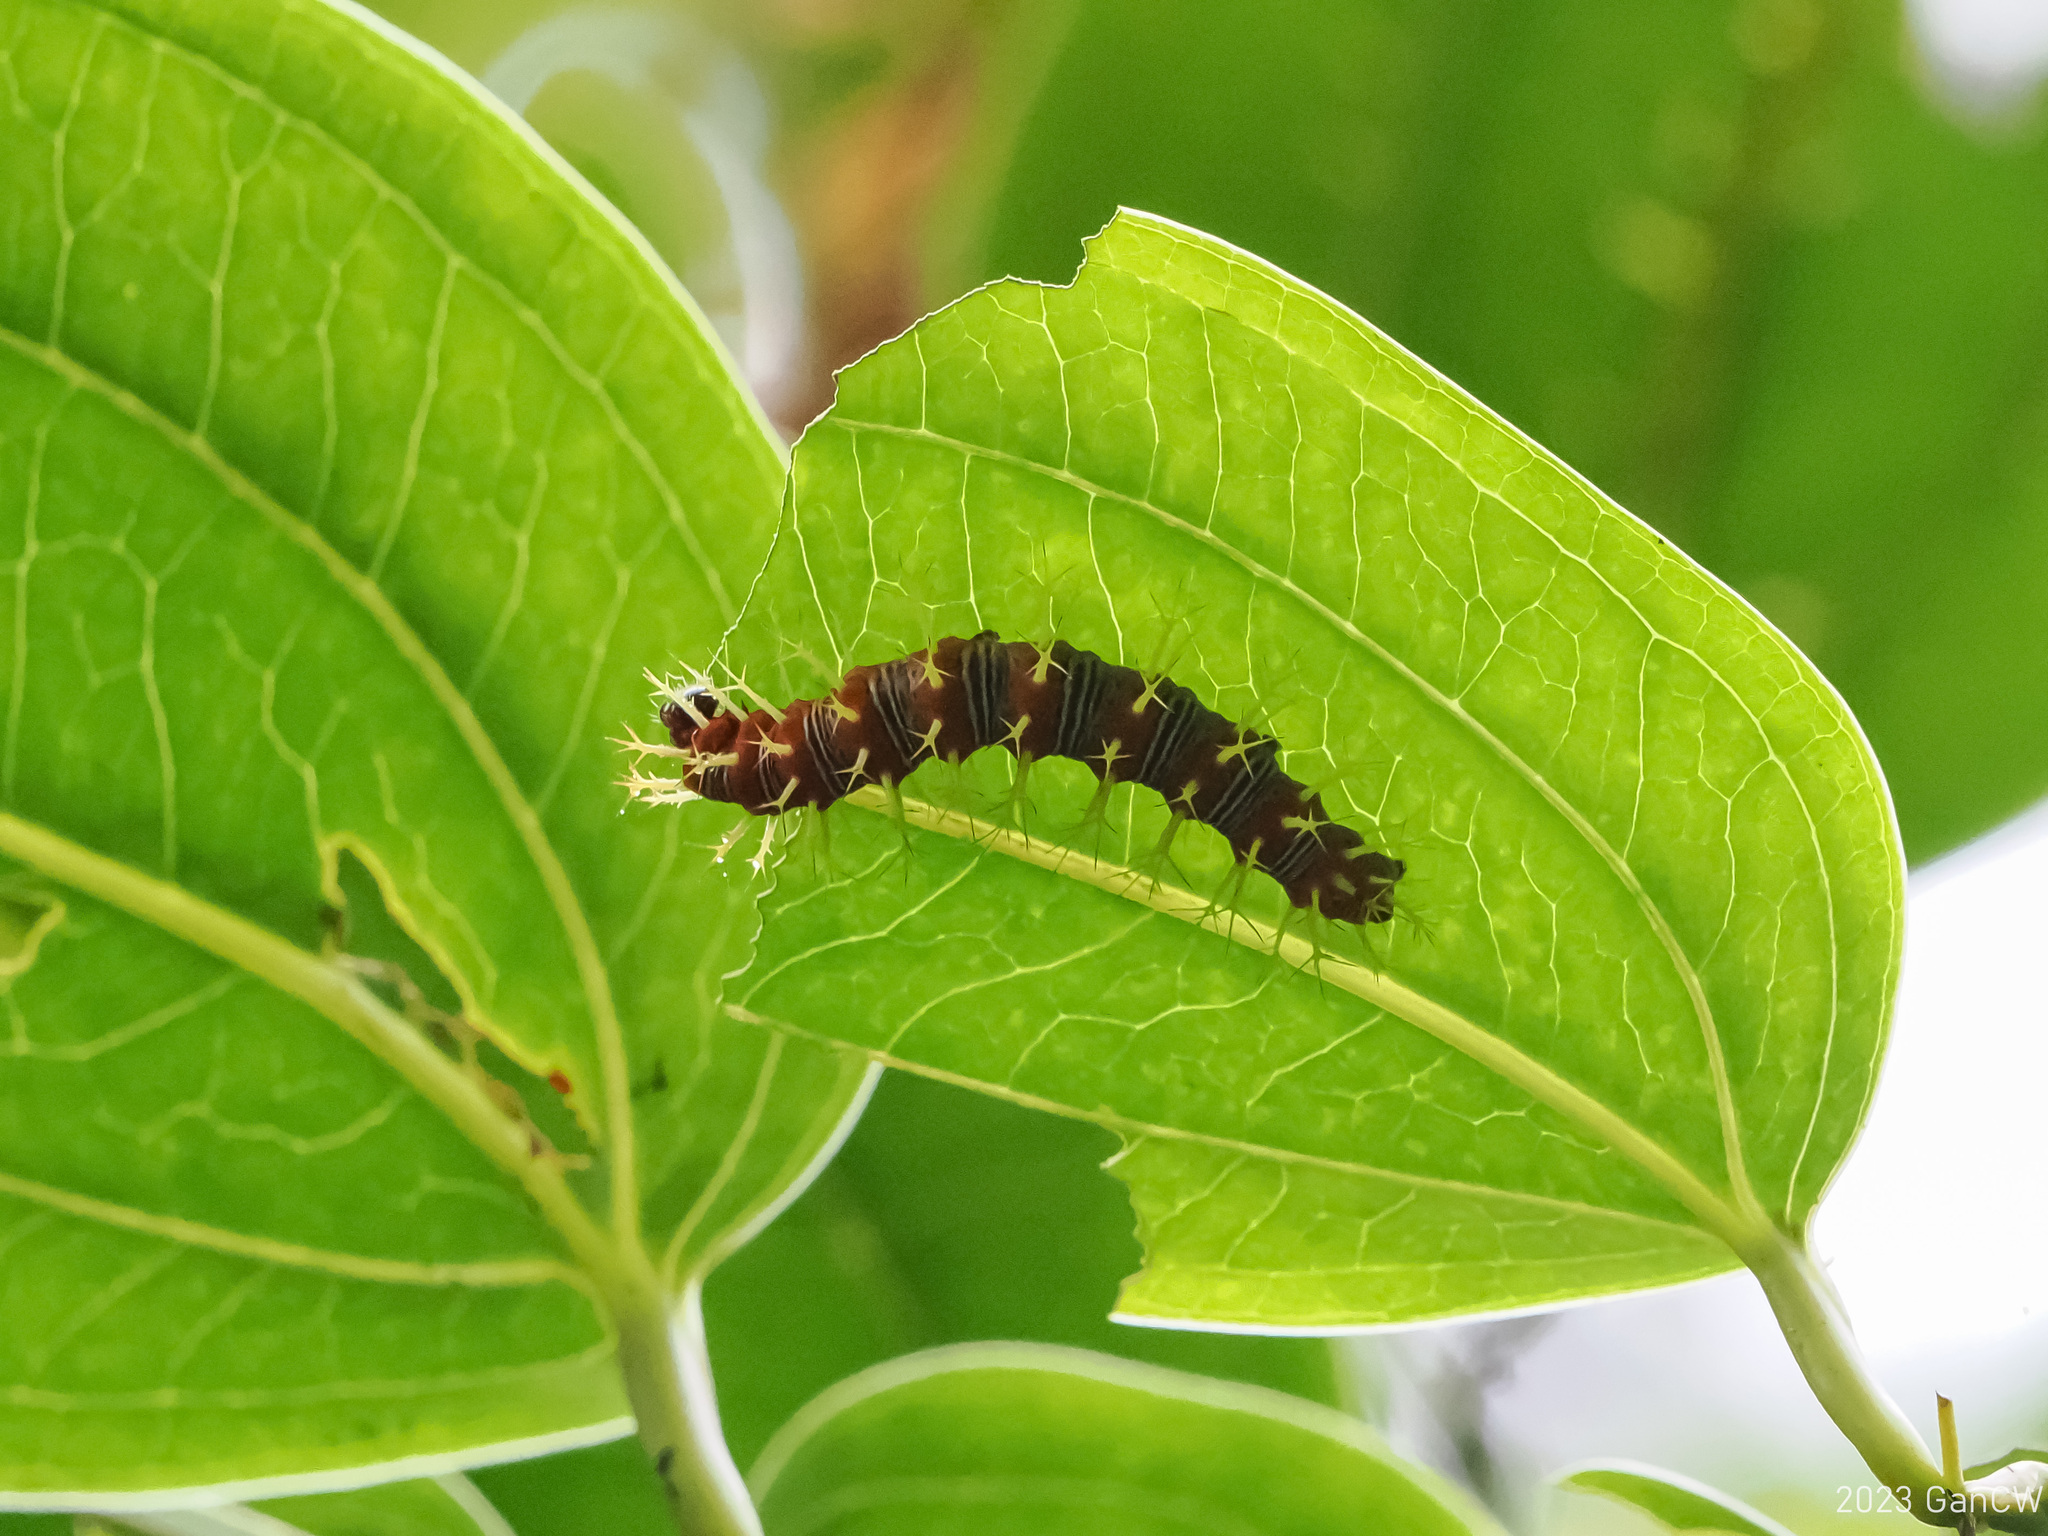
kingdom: Animalia
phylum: Arthropoda
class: Insecta
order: Lepidoptera
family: Nymphalidae
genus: Vanessa
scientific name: Vanessa Kaniska canace
